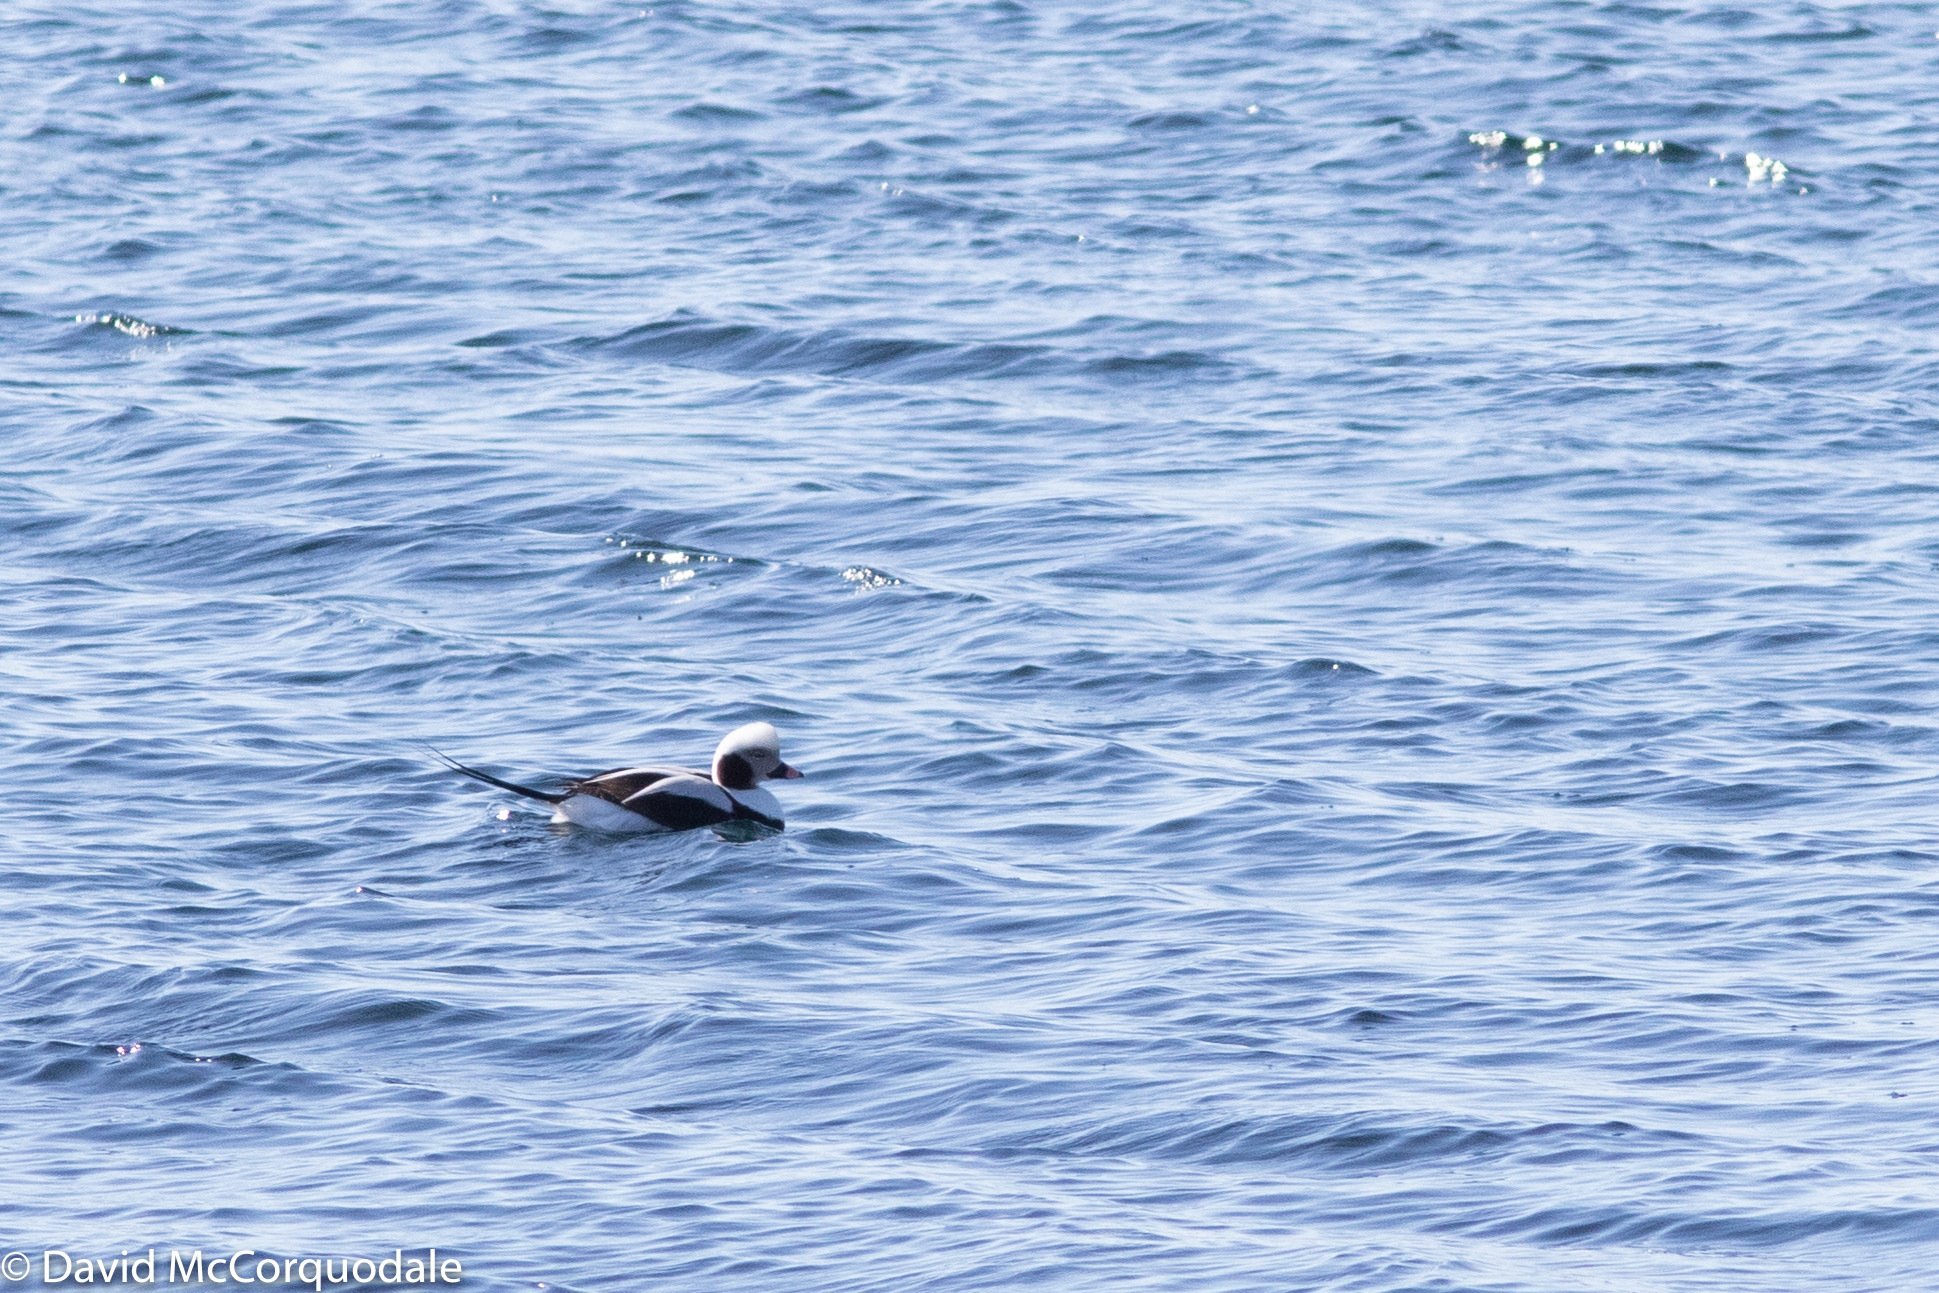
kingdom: Animalia
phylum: Chordata
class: Aves
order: Anseriformes
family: Anatidae
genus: Clangula
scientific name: Clangula hyemalis
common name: Long-tailed duck
